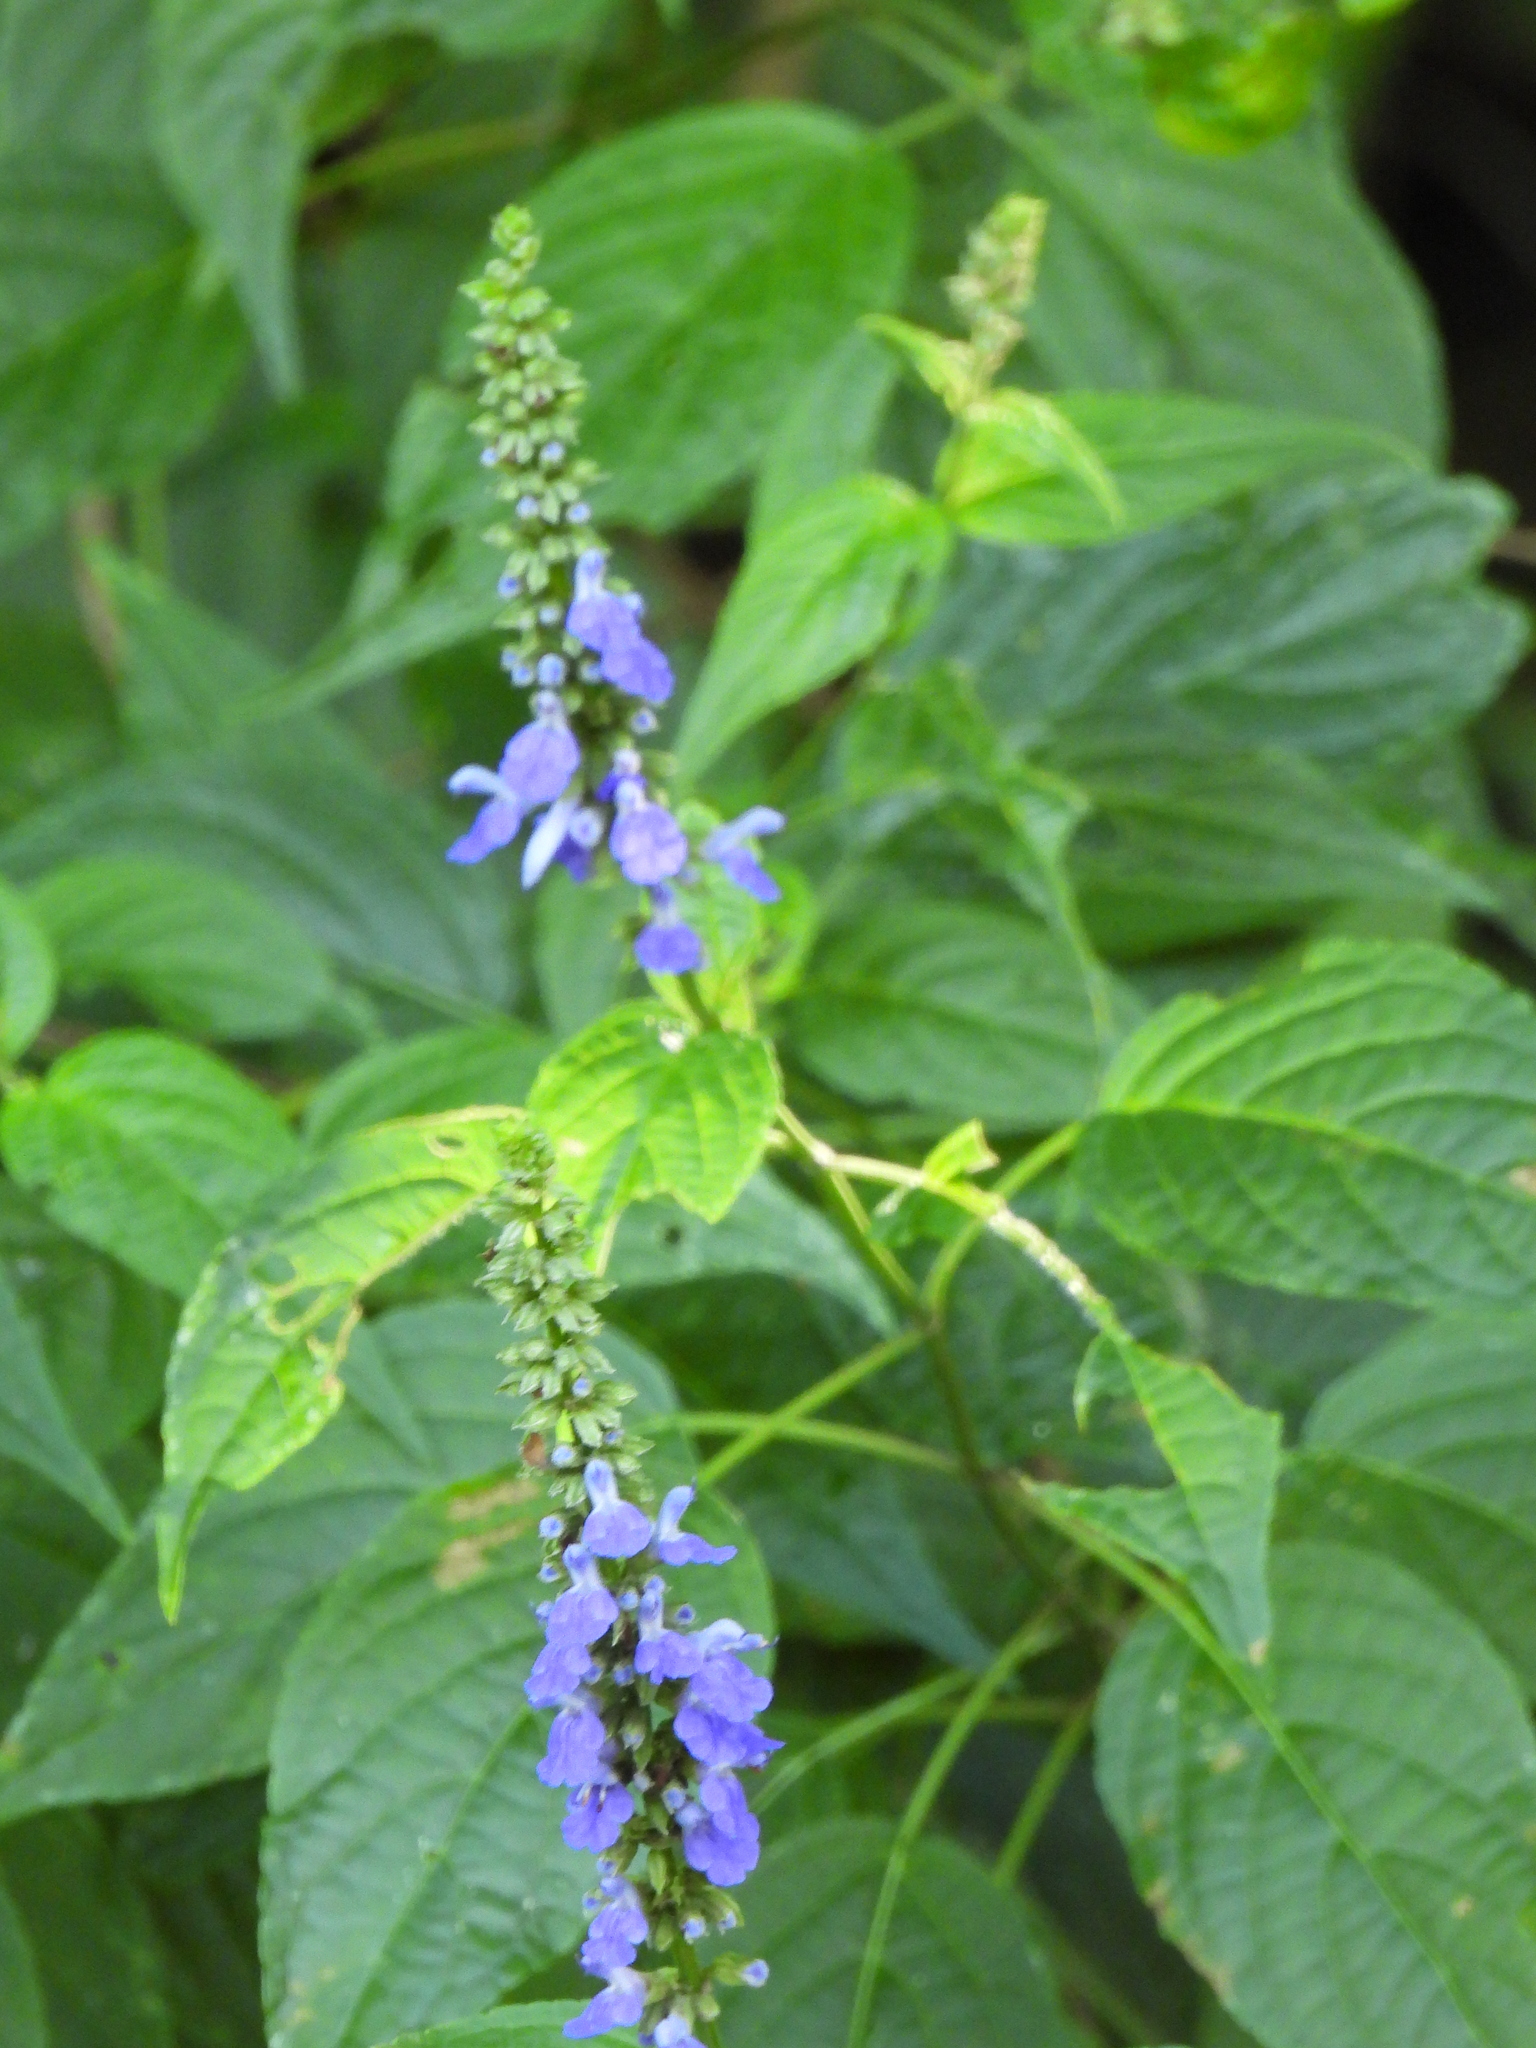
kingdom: Plantae
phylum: Tracheophyta
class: Magnoliopsida
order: Lamiales
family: Lamiaceae
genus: Salvia
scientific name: Salvia connivens
